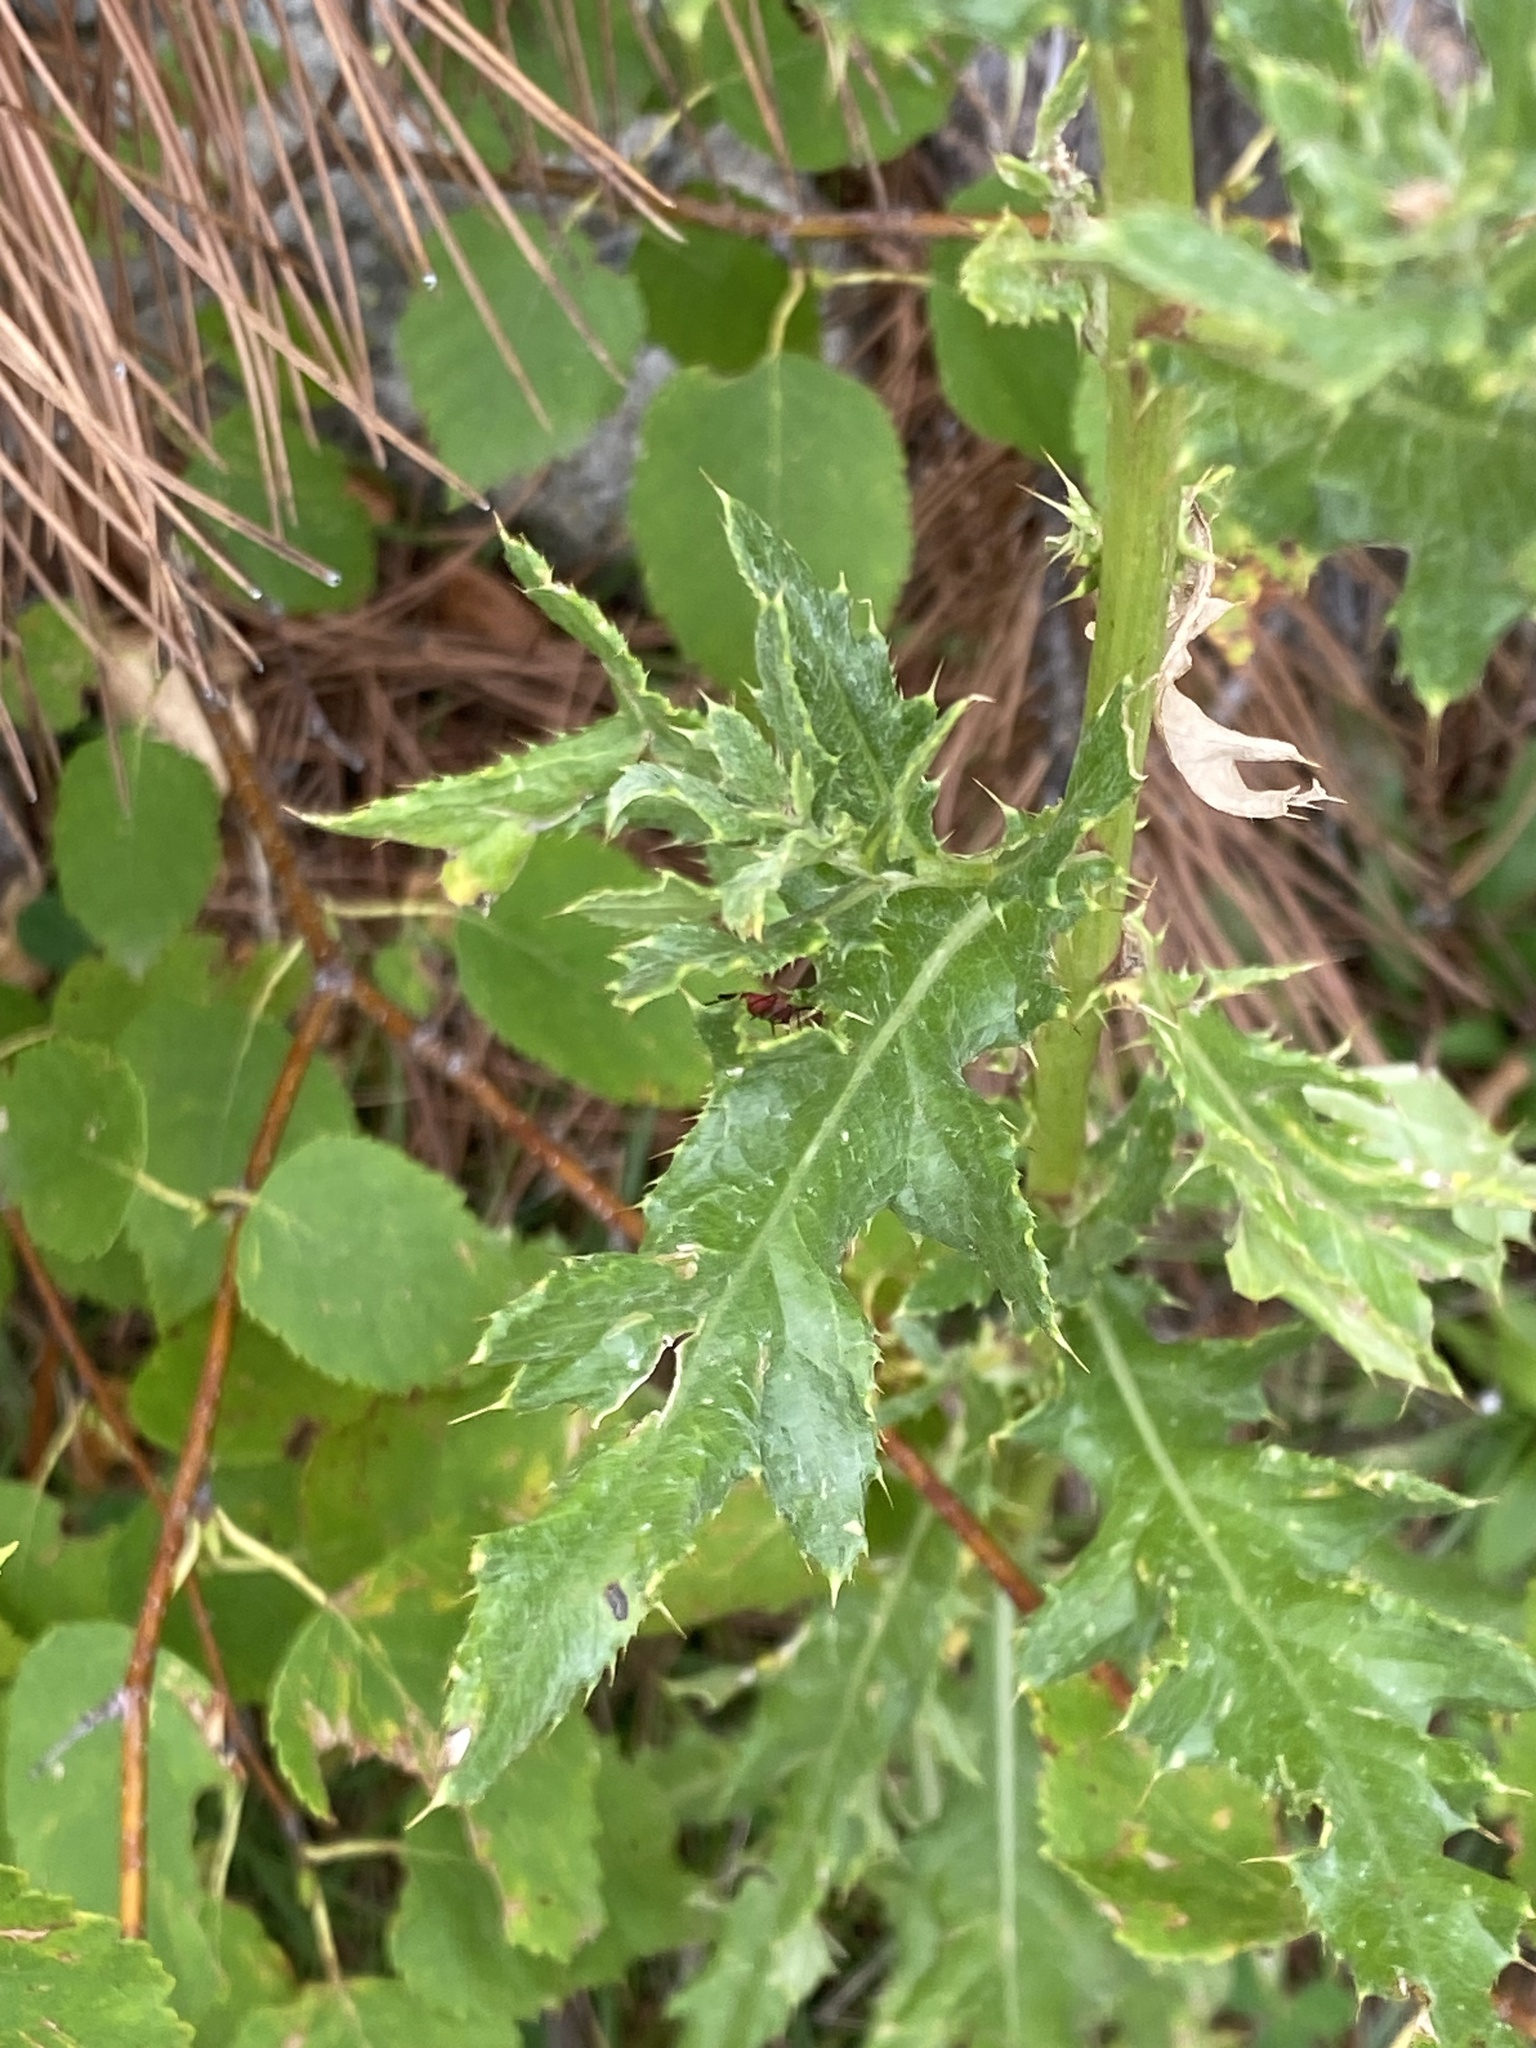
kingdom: Plantae
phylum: Tracheophyta
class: Magnoliopsida
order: Asterales
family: Asteraceae
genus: Cirsium
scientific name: Cirsium arvense
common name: Creeping thistle
